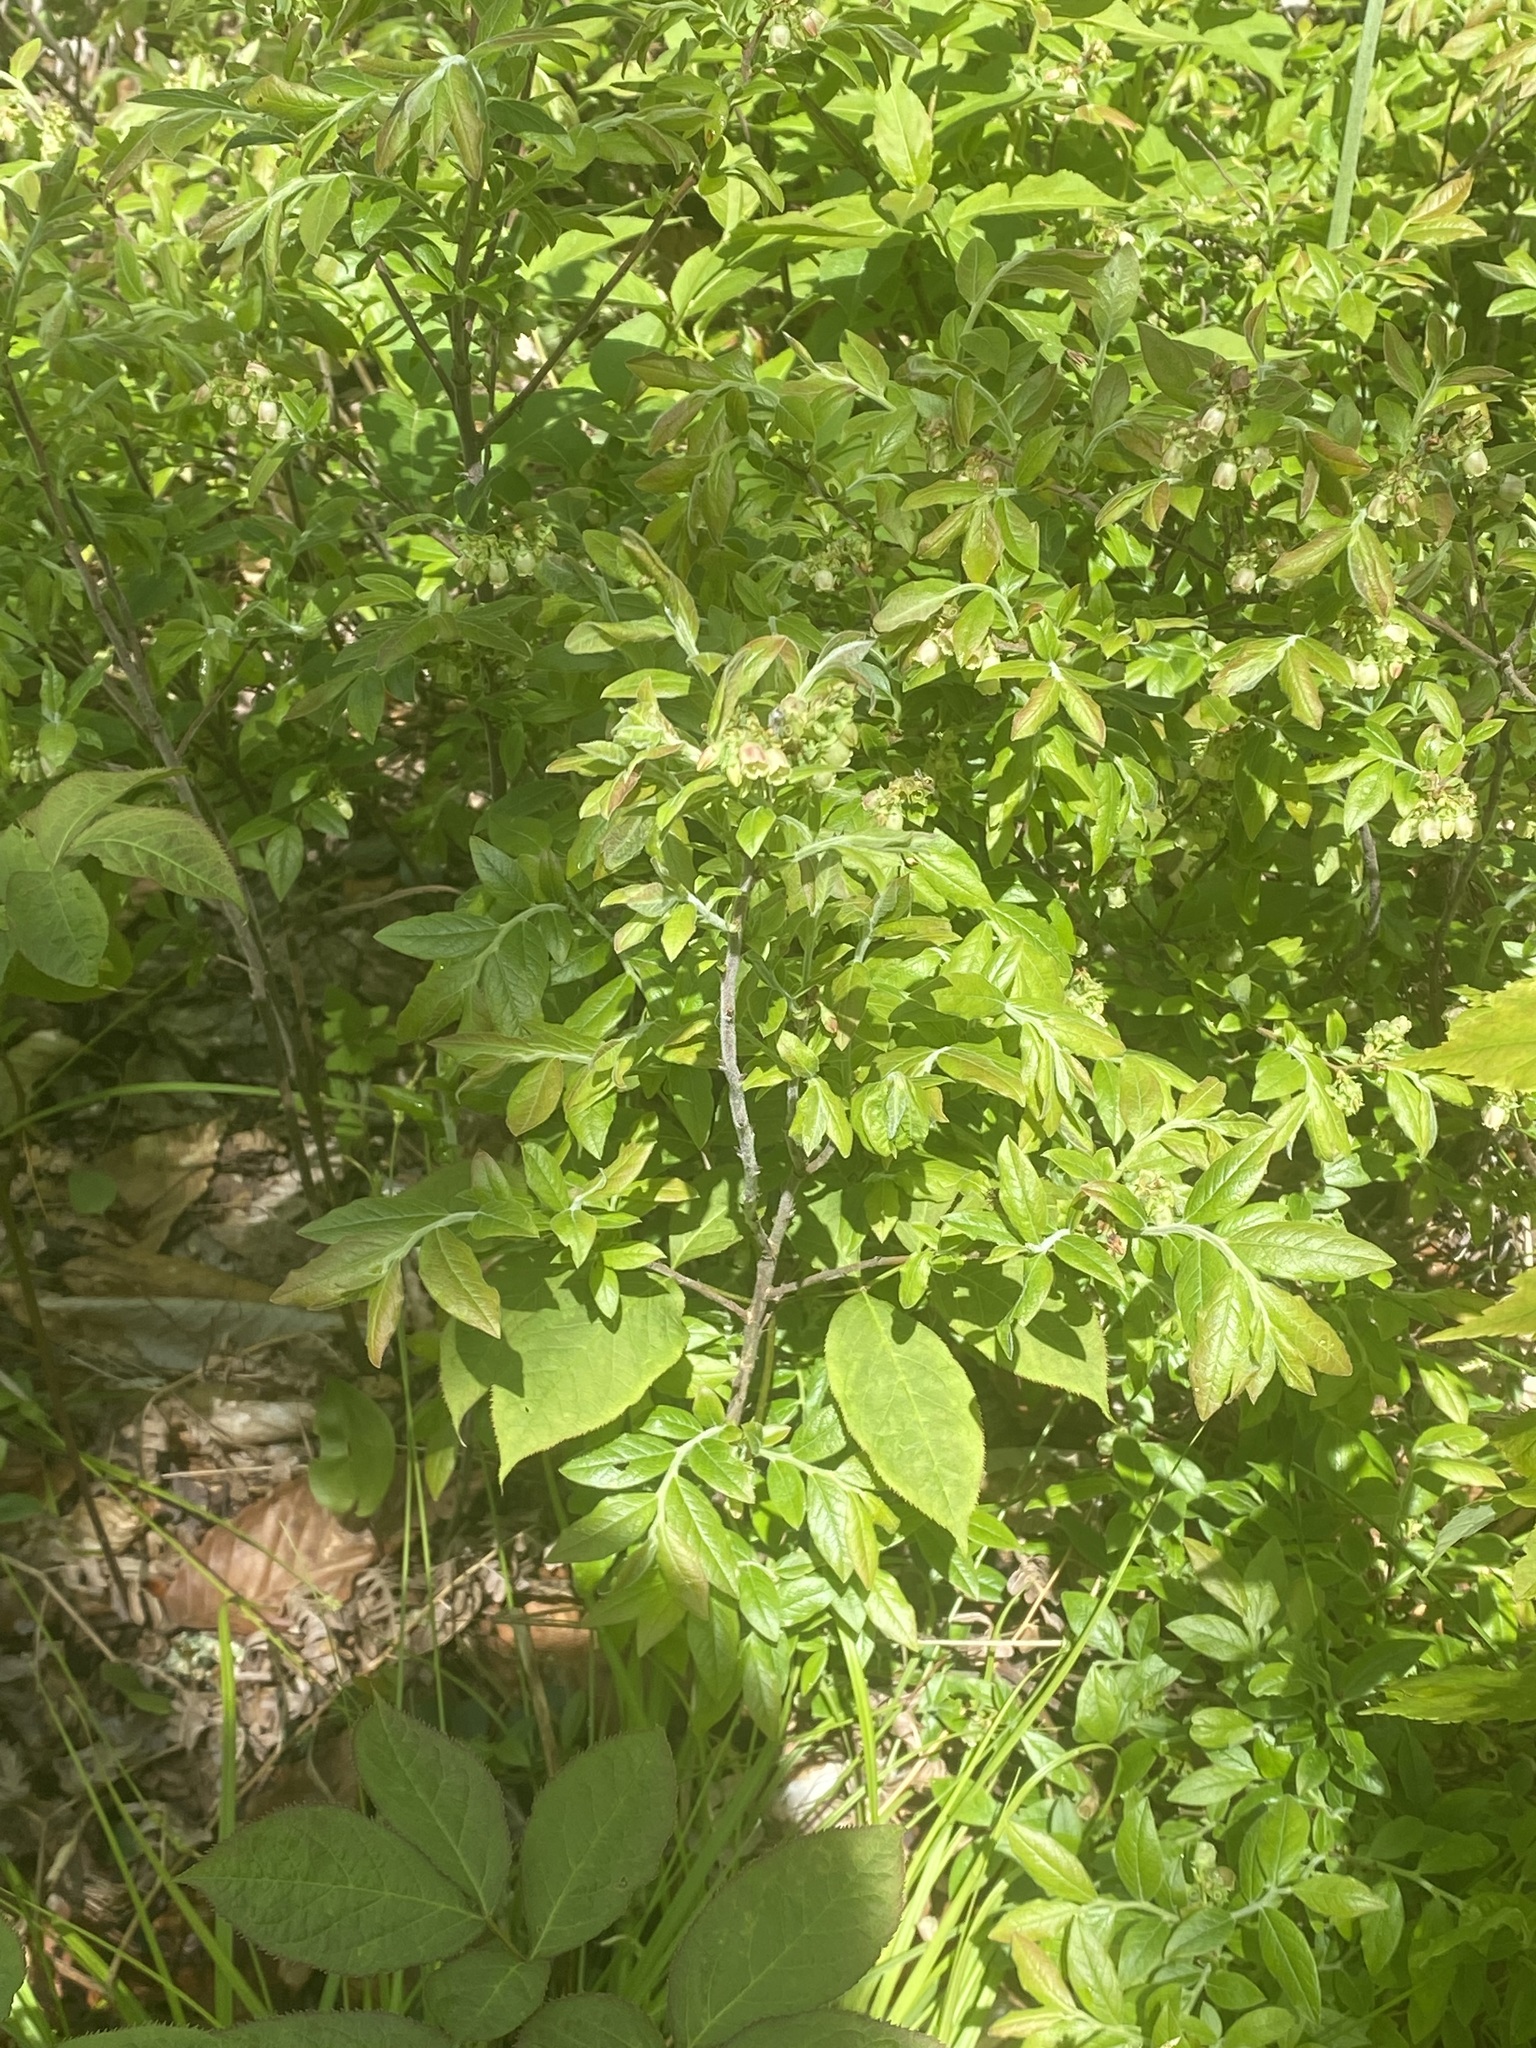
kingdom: Plantae
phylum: Tracheophyta
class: Magnoliopsida
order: Ericales
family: Ericaceae
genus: Vaccinium
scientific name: Vaccinium myrtilloides
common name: Canada blueberry
